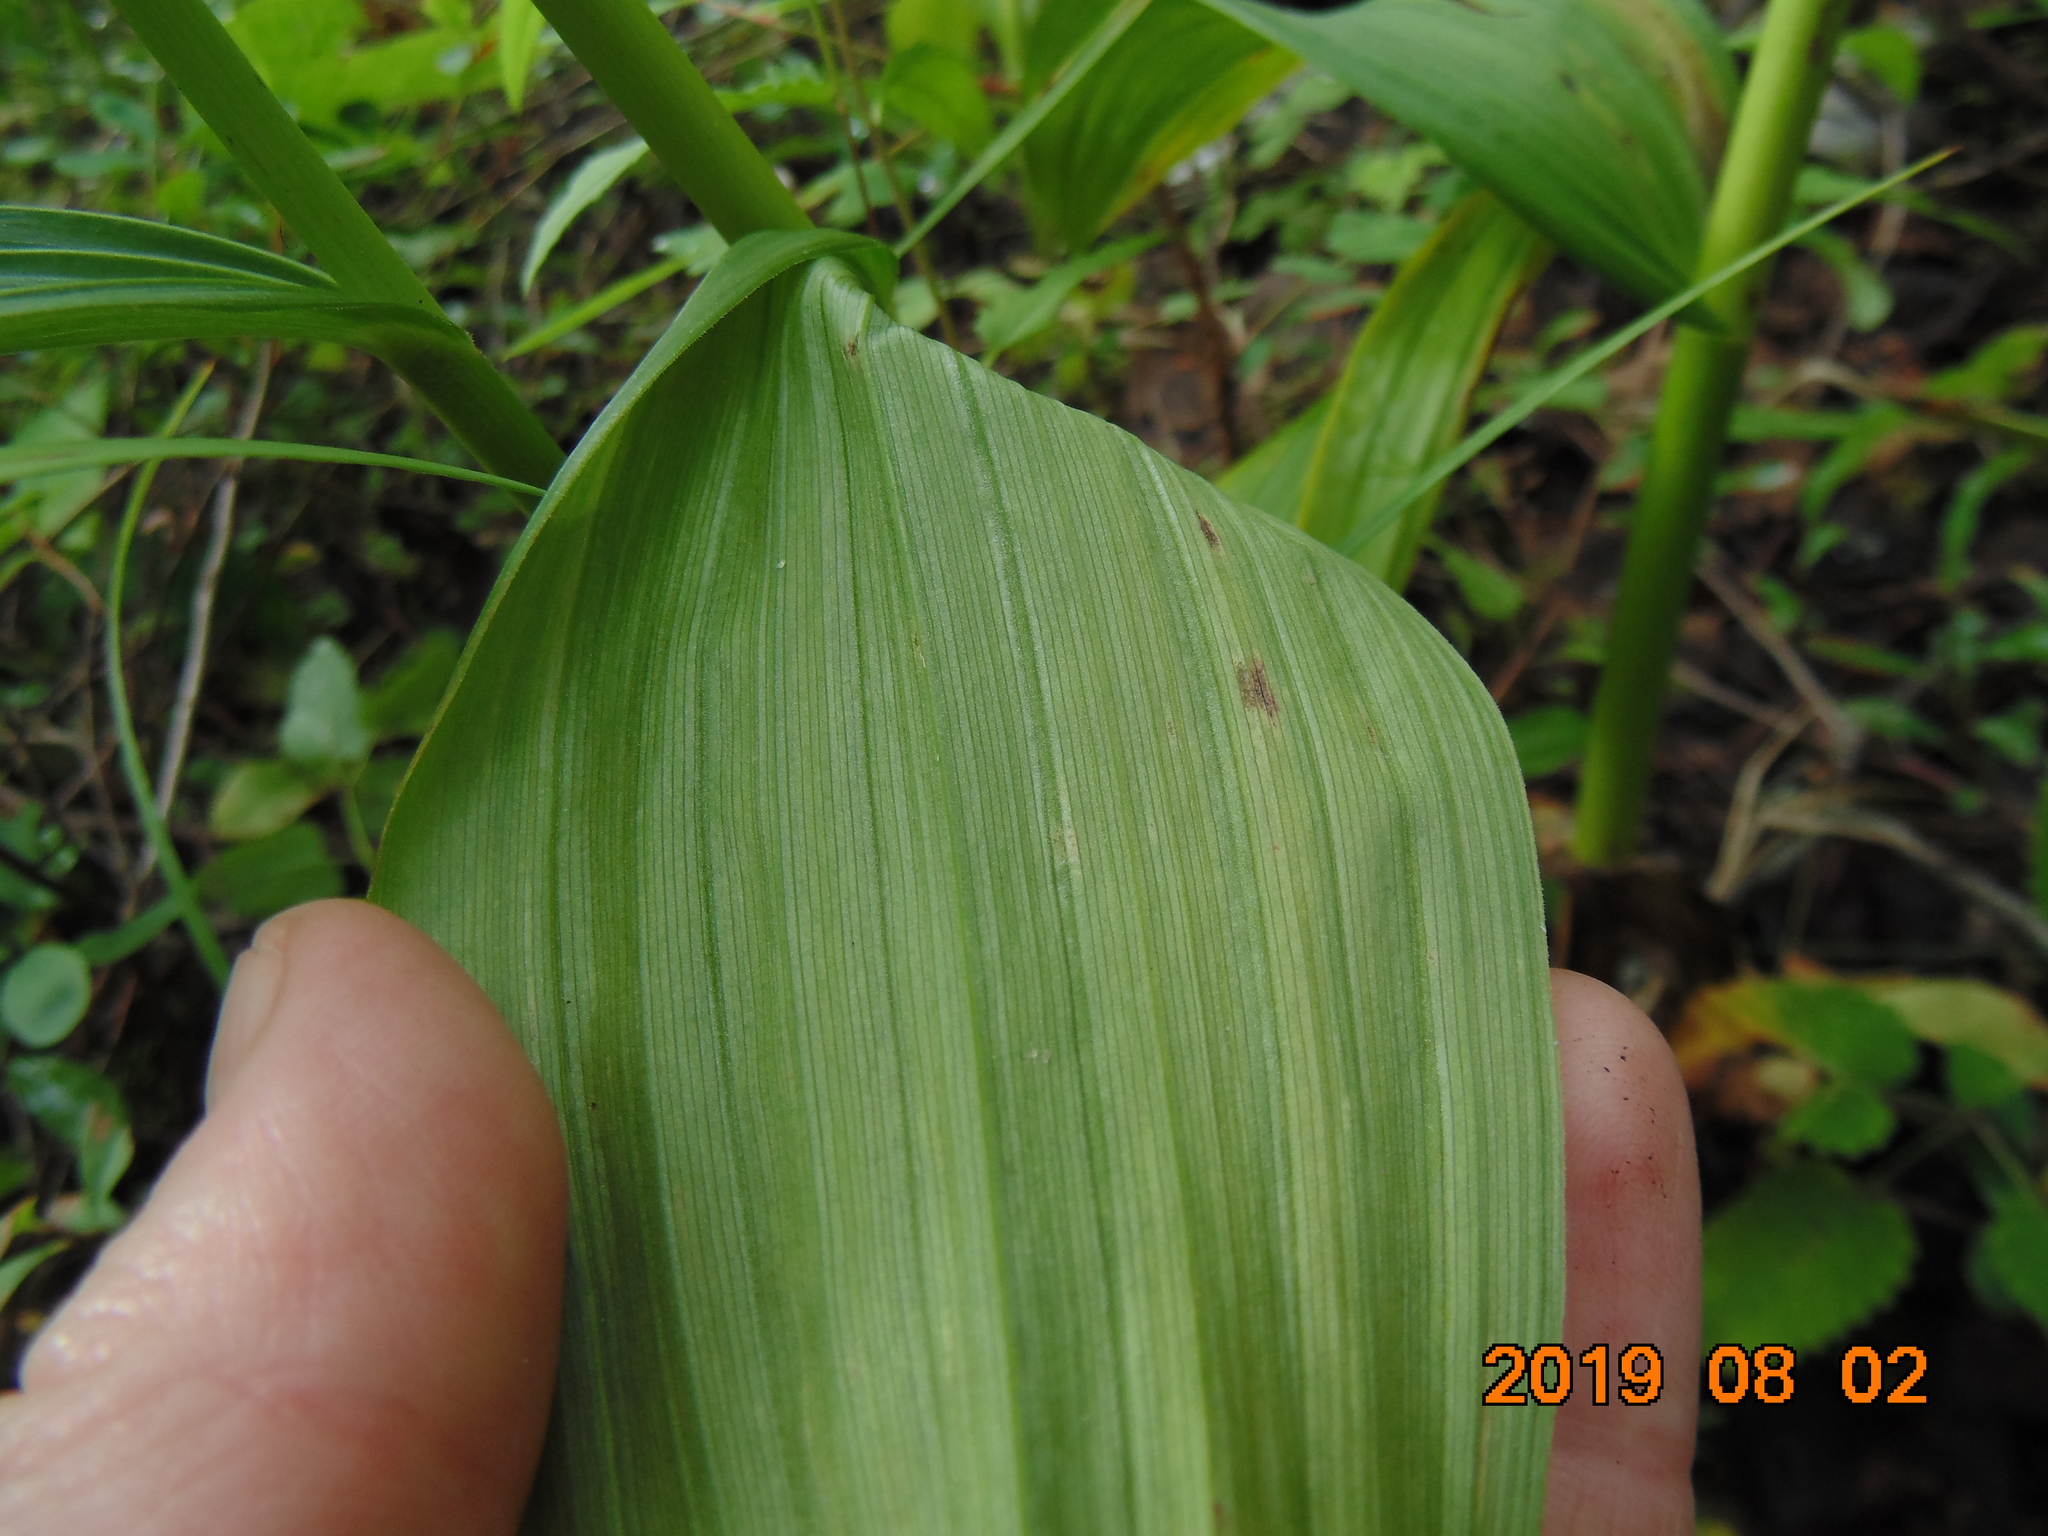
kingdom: Plantae
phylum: Tracheophyta
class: Liliopsida
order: Liliales
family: Melanthiaceae
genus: Veratrum
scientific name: Veratrum lobelianum
